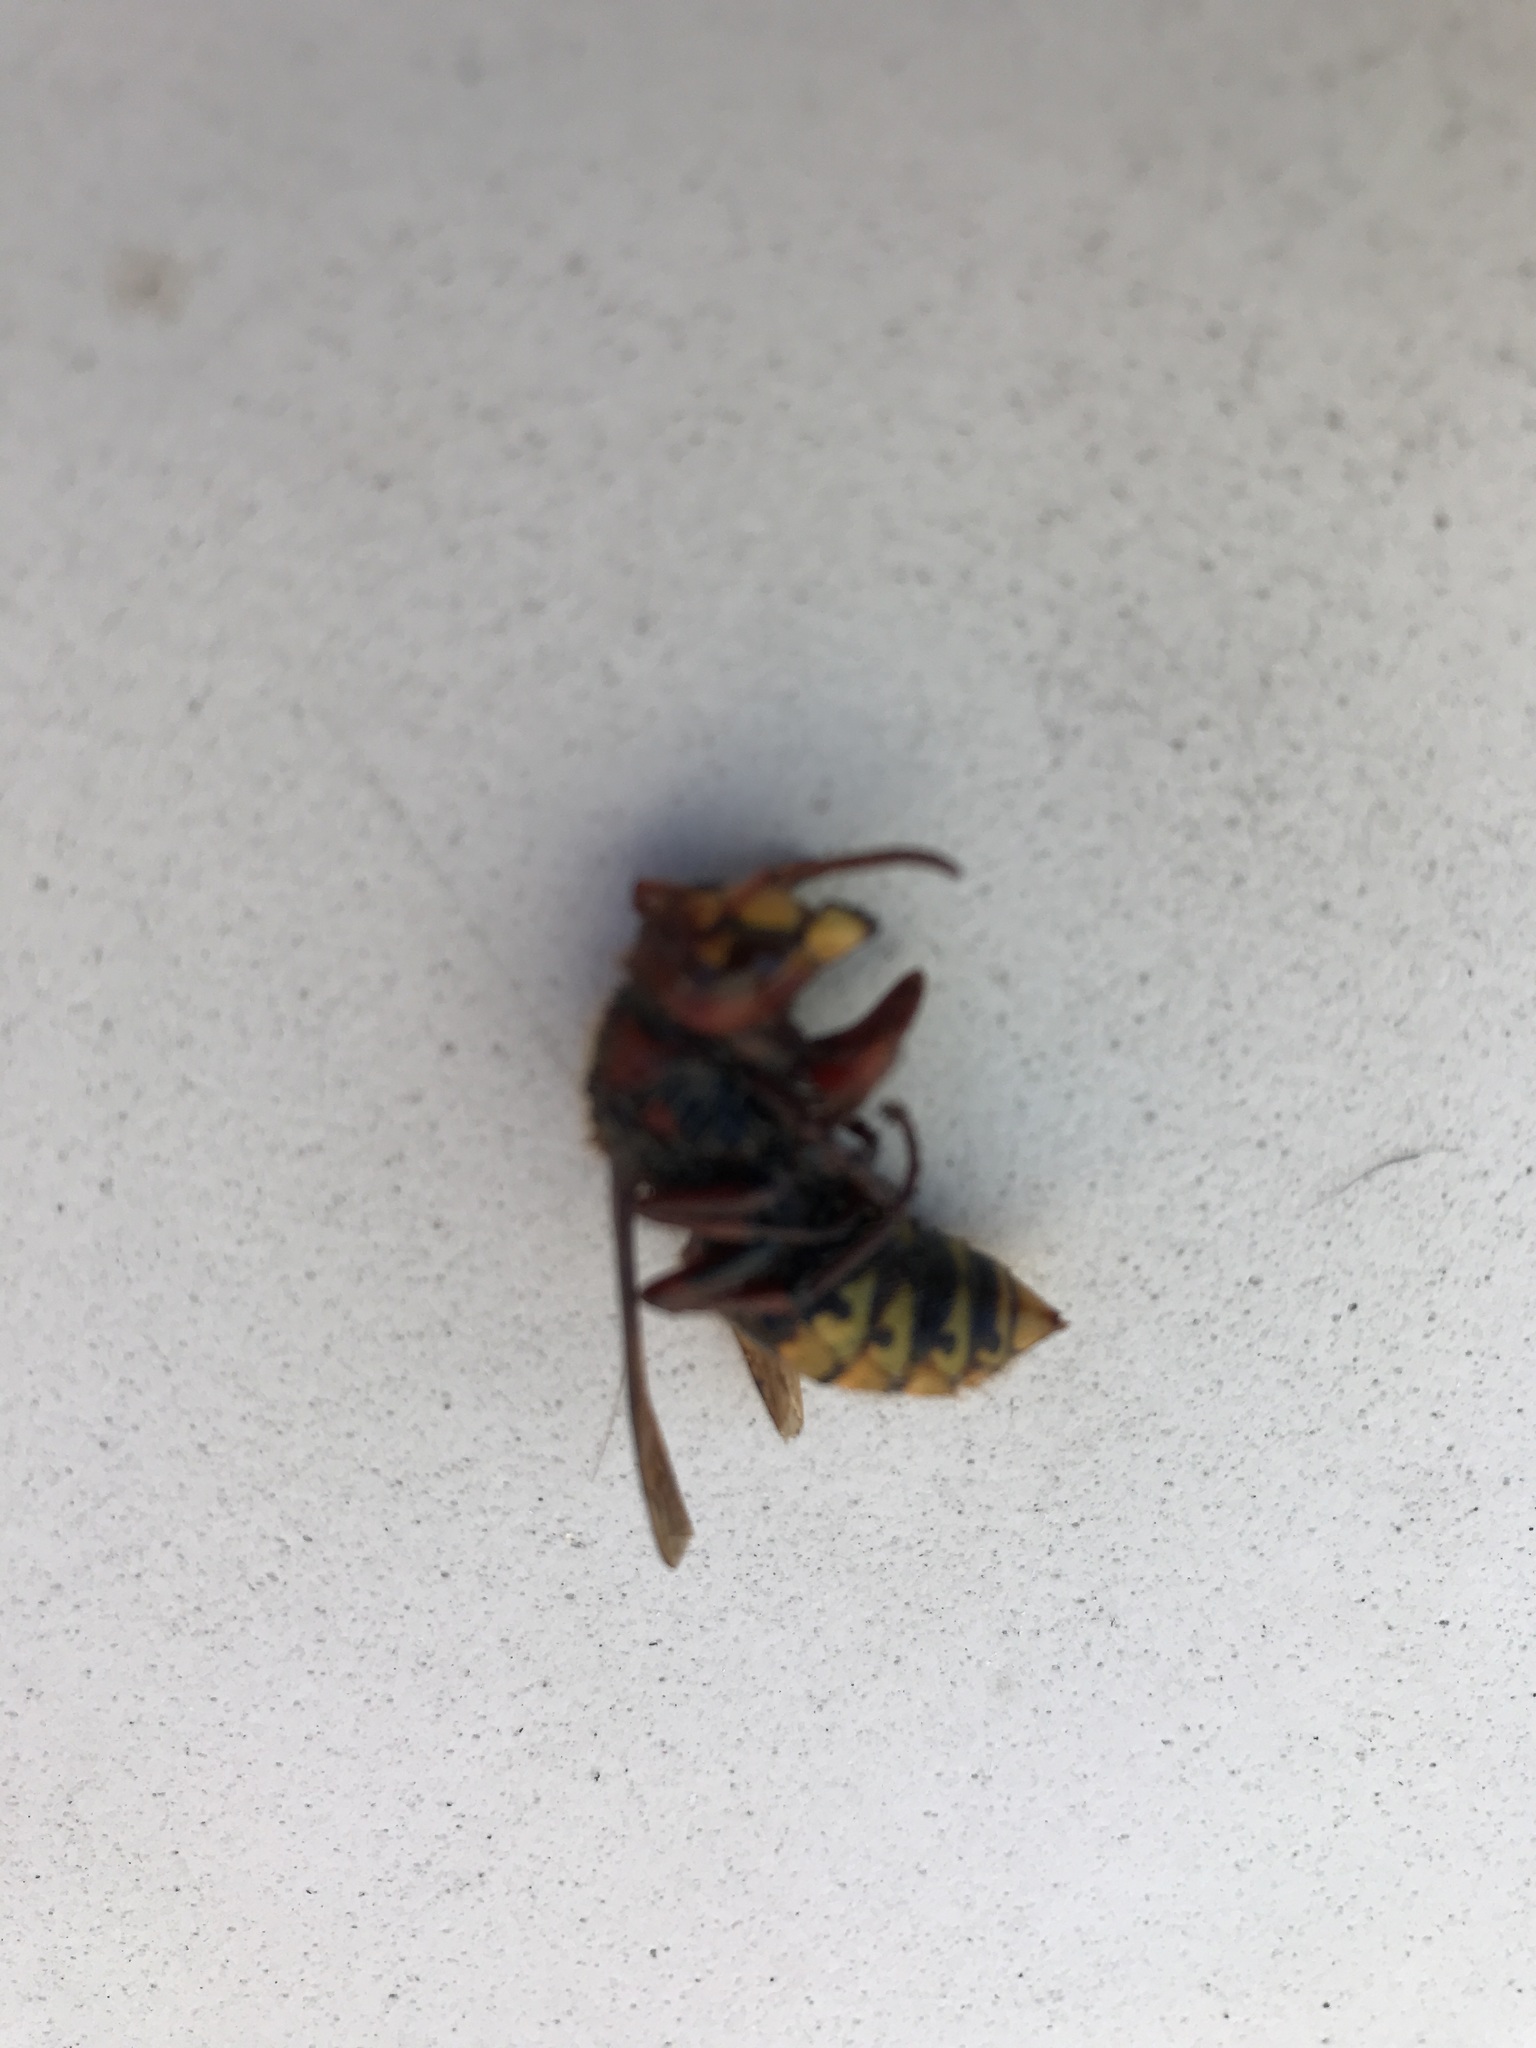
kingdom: Animalia
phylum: Arthropoda
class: Insecta
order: Hymenoptera
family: Vespidae
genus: Vespa
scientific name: Vespa crabro
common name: Hornet
